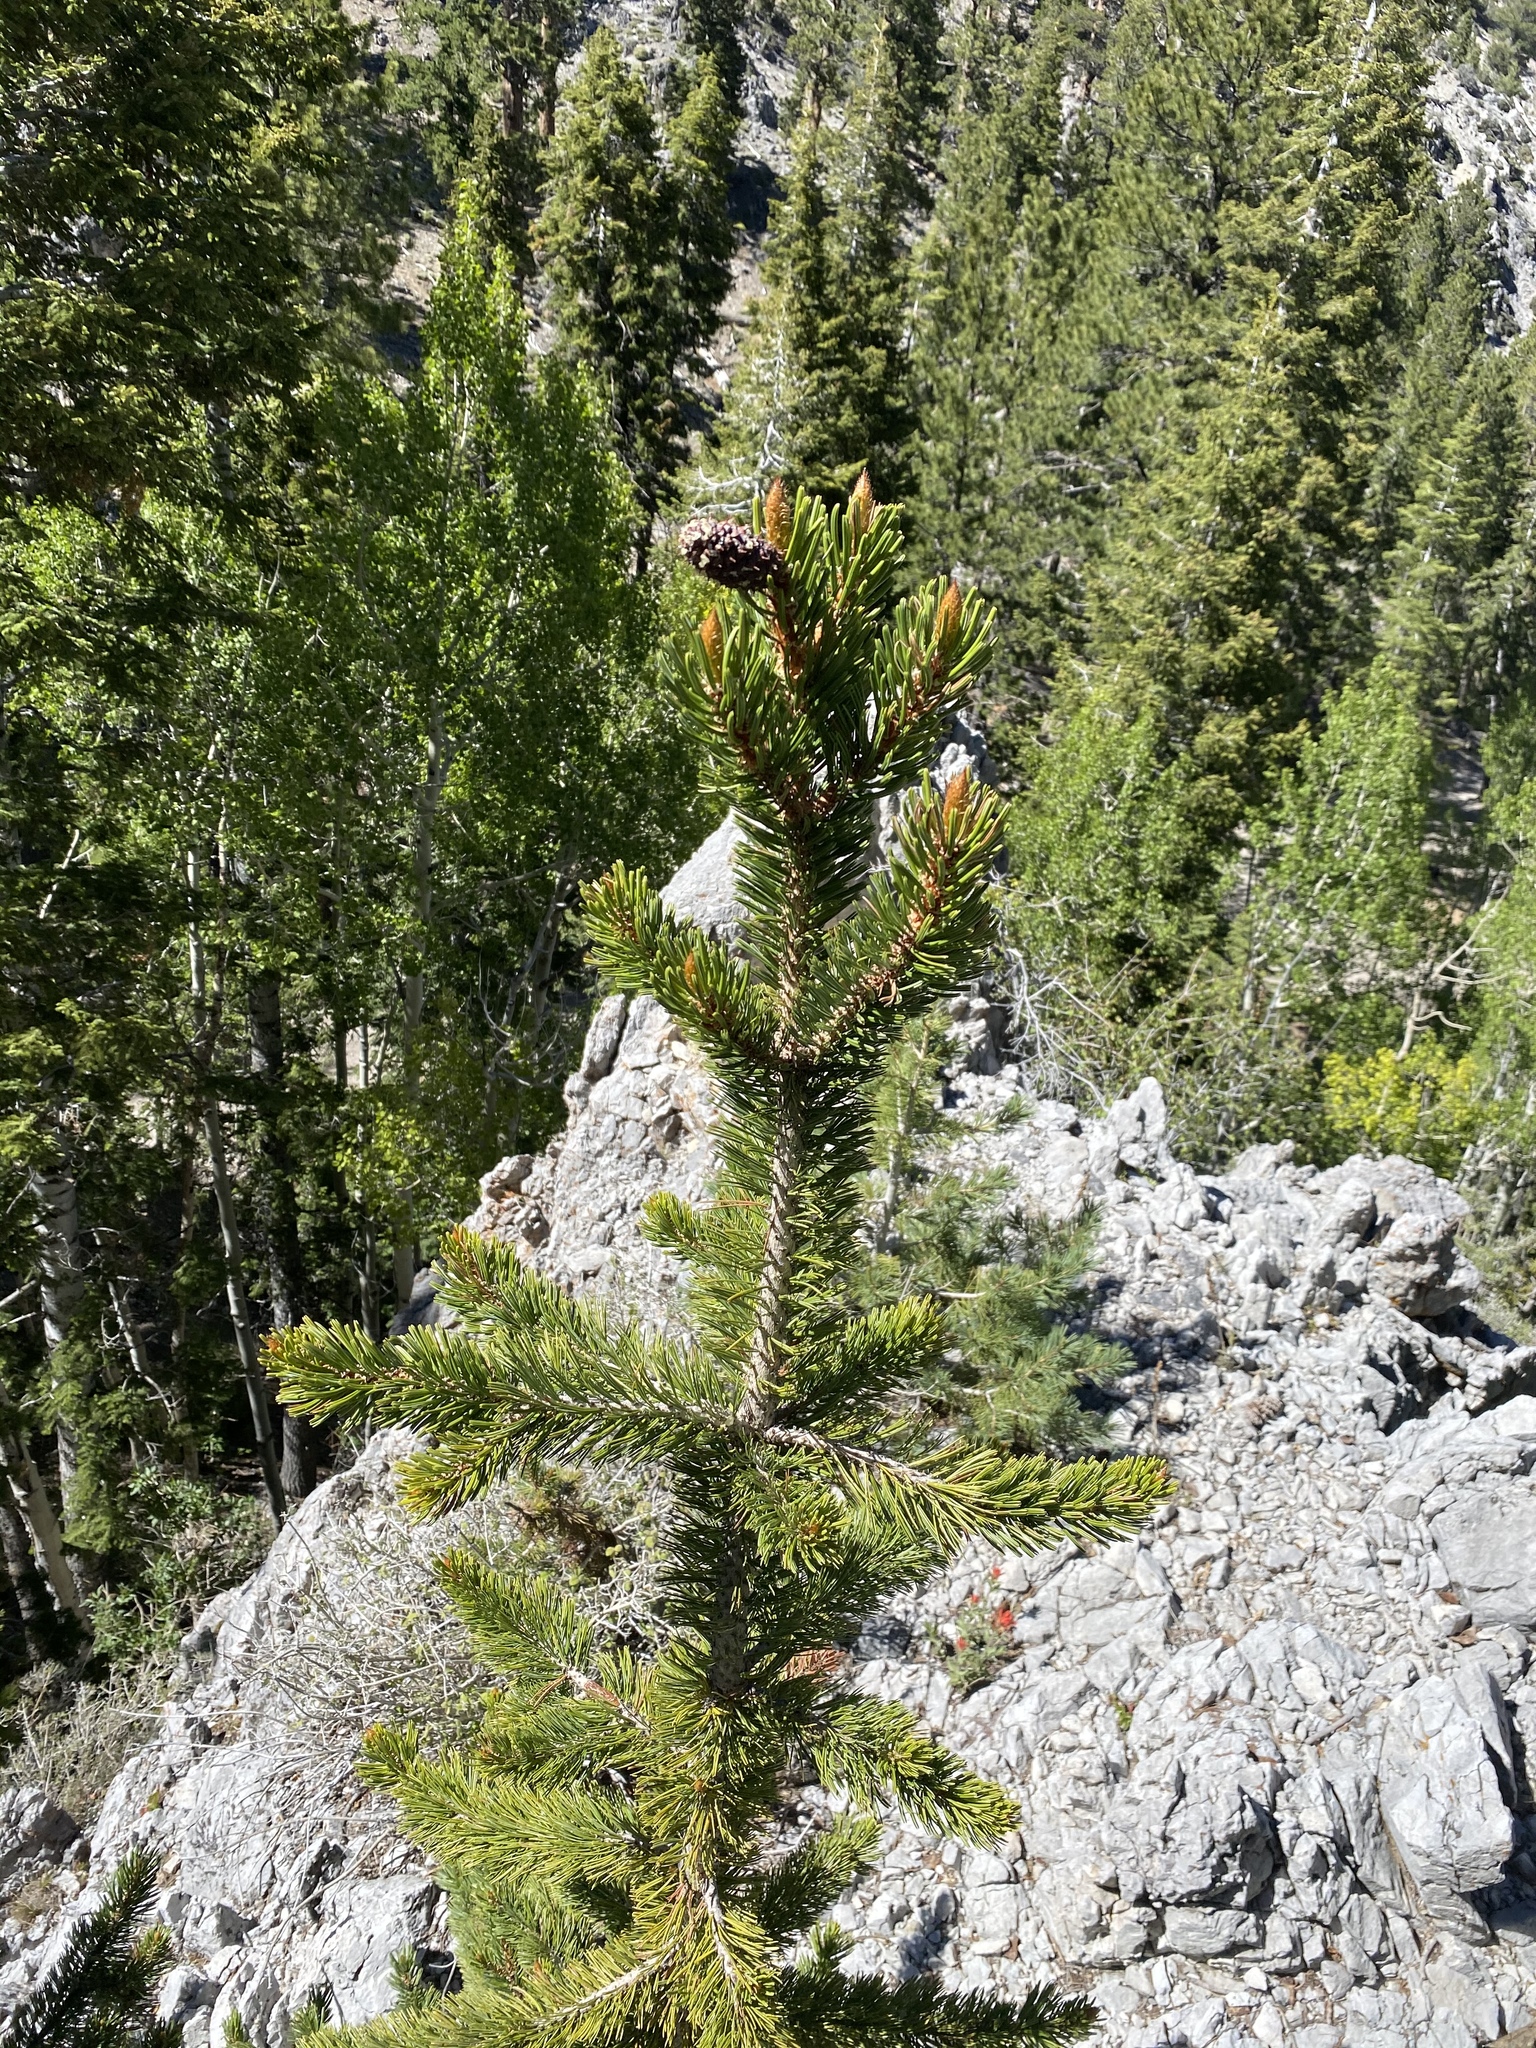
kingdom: Plantae
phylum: Tracheophyta
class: Pinopsida
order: Pinales
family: Pinaceae
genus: Pinus
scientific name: Pinus longaeva
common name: Intermountain bristlecone pine
